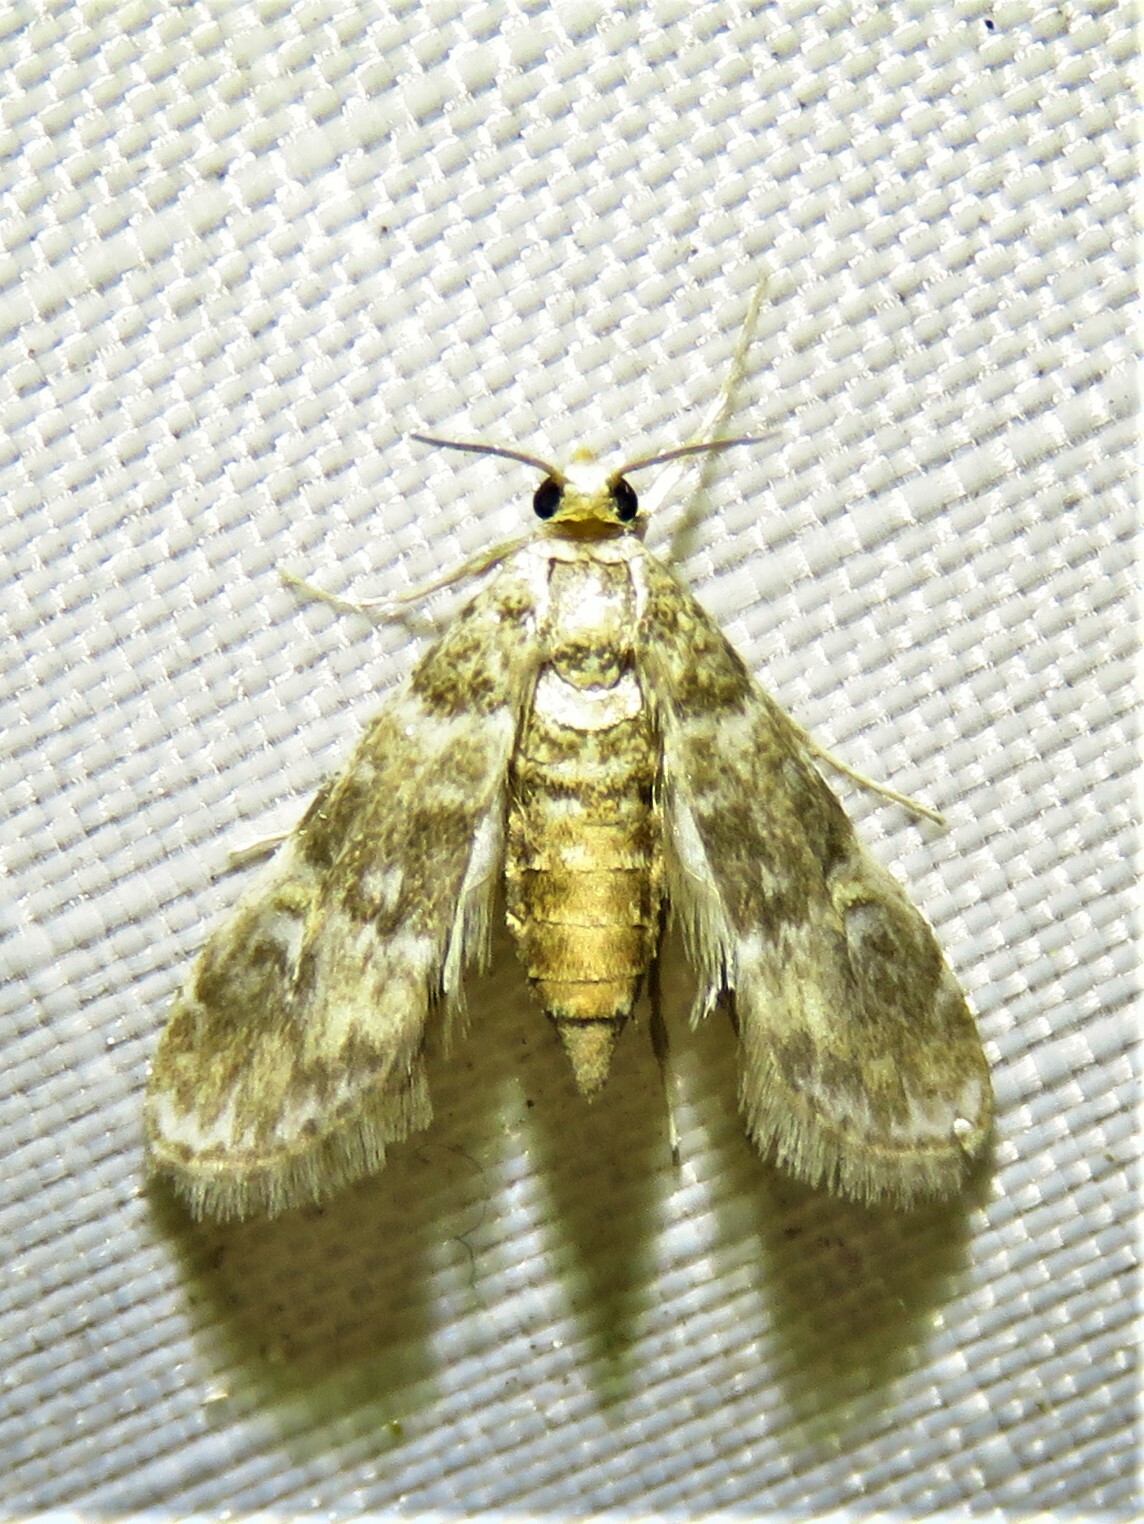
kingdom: Animalia
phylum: Arthropoda
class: Insecta
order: Lepidoptera
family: Crambidae
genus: Elophila
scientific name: Elophila obliteralis
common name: Waterlily leafcutter moth
